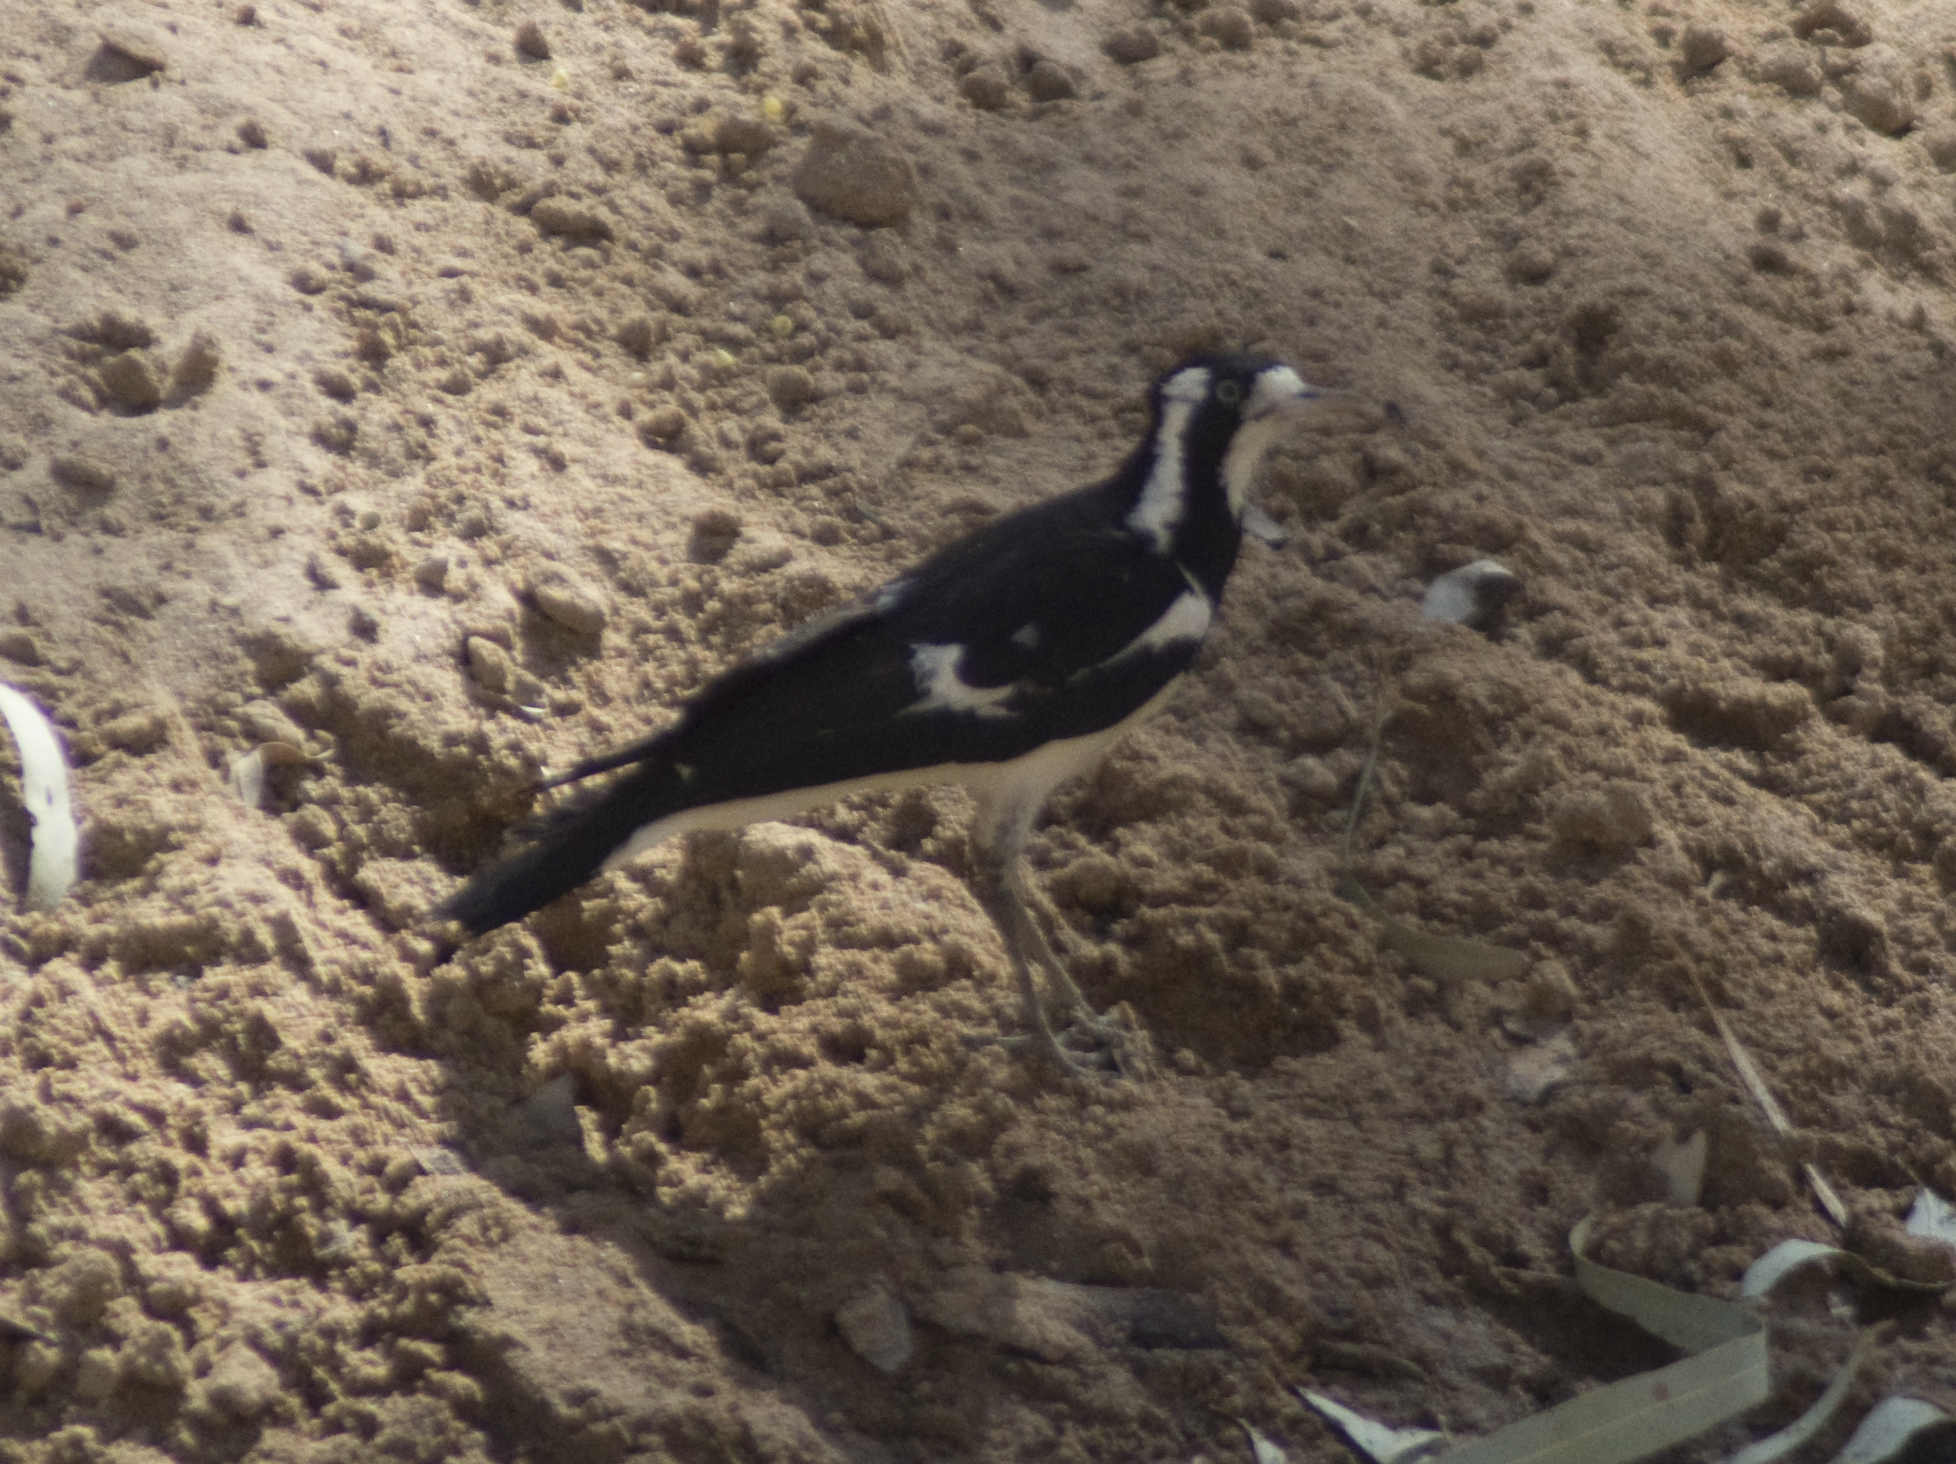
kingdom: Animalia
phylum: Chordata
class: Aves
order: Passeriformes
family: Monarchidae
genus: Grallina
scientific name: Grallina cyanoleuca
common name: Magpie-lark
